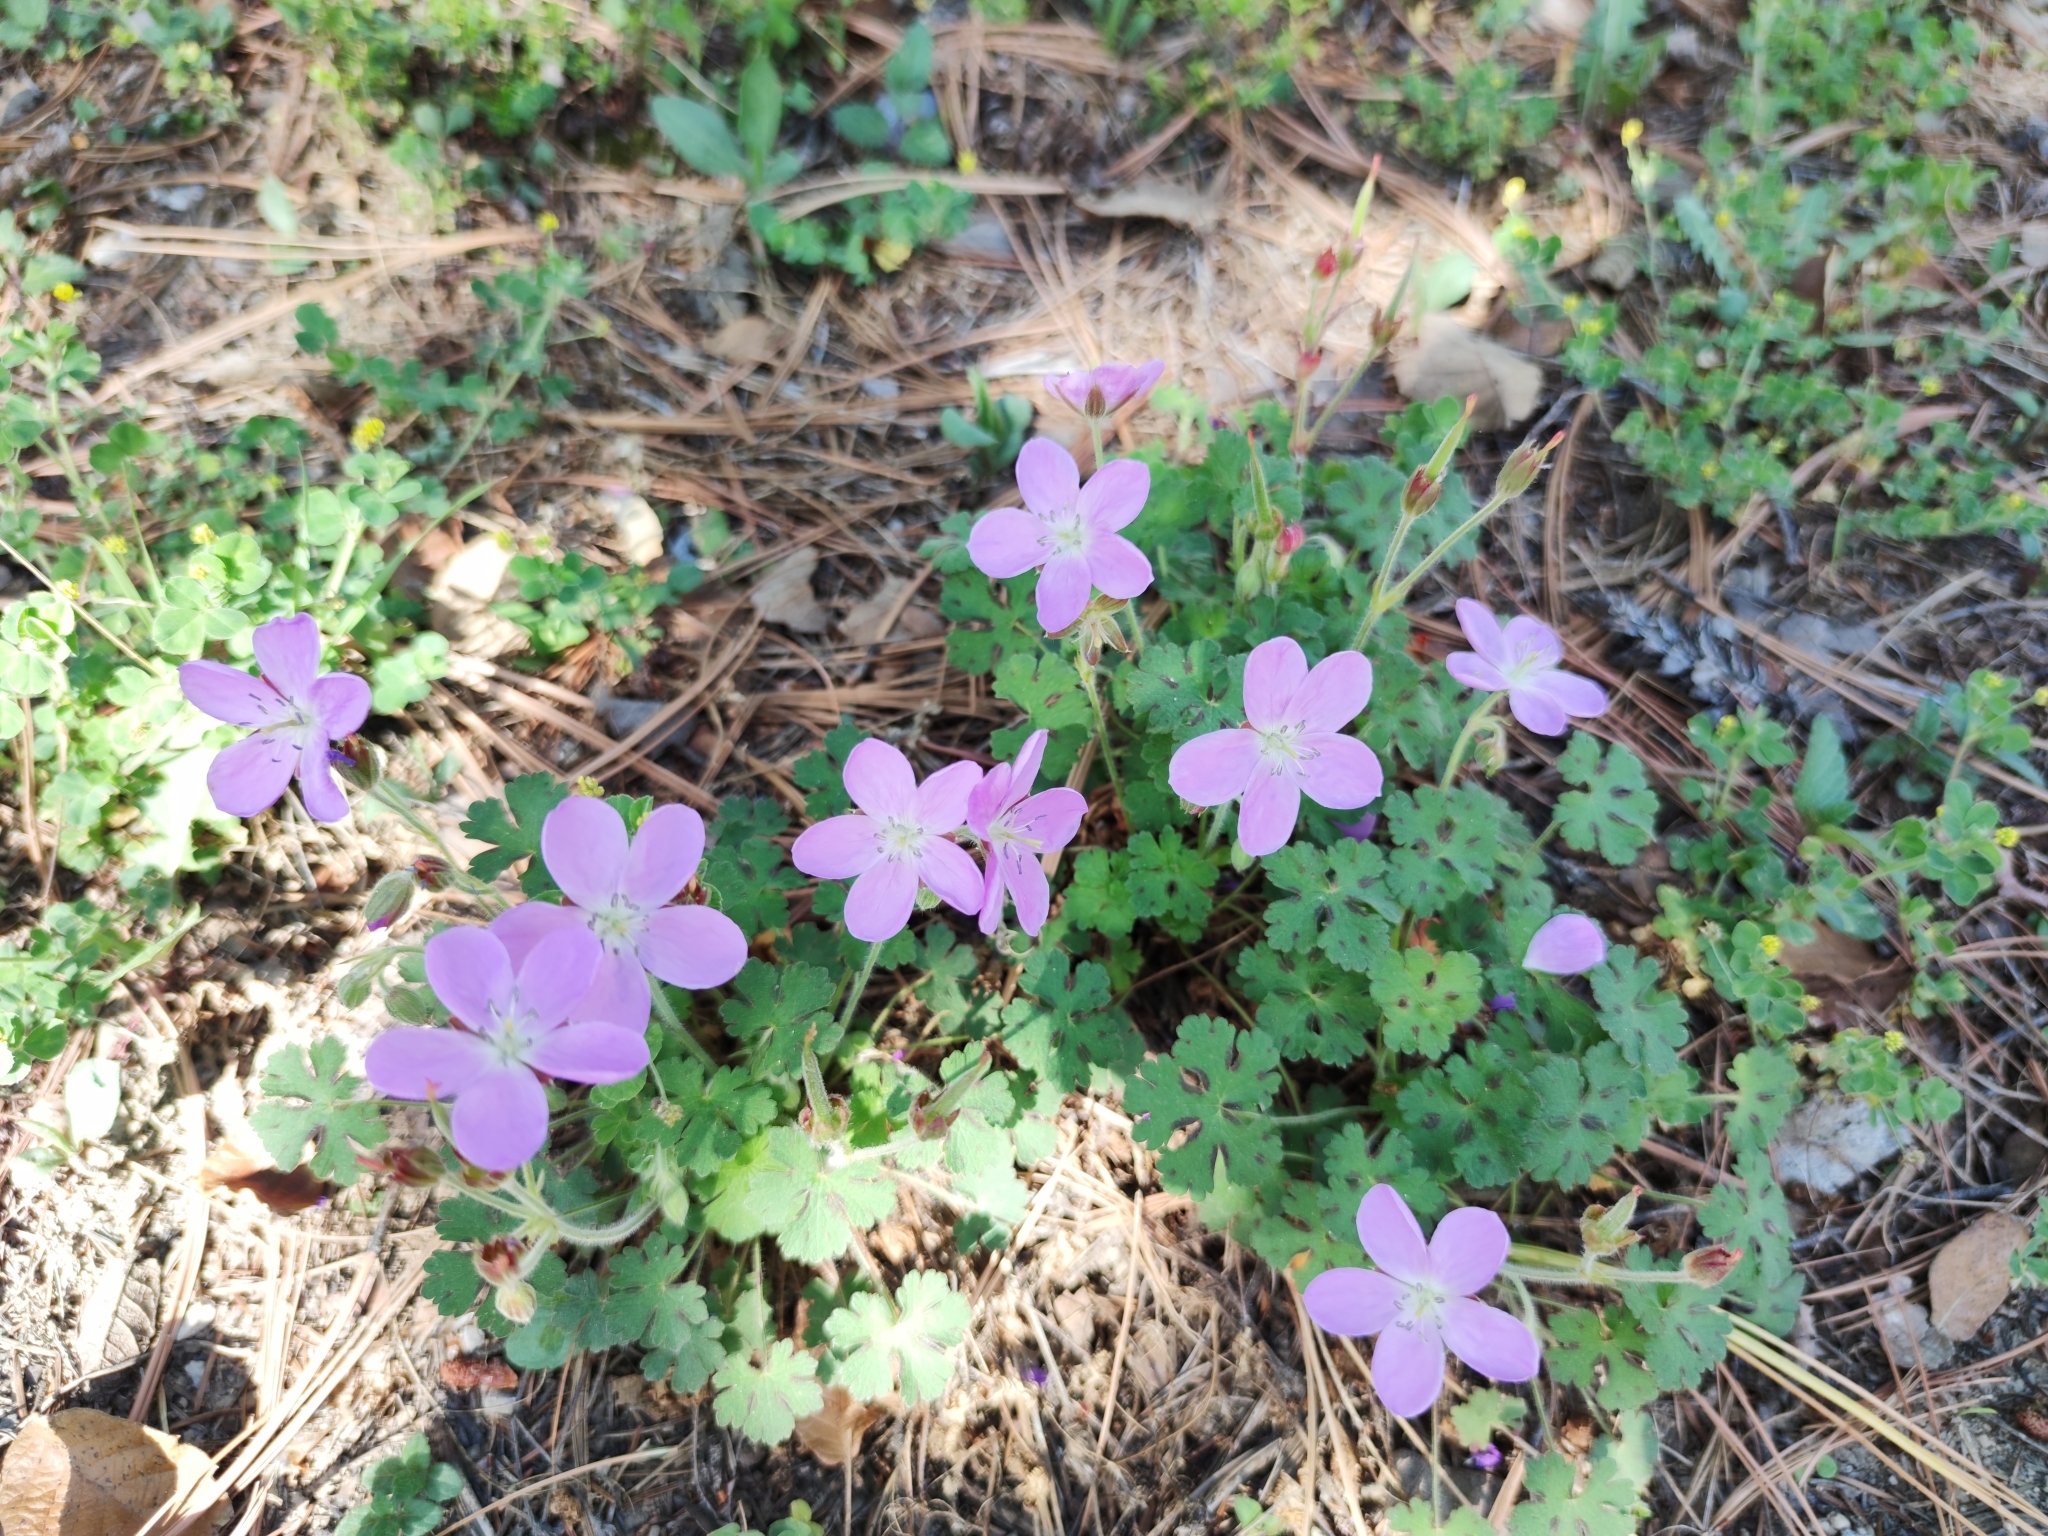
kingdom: Plantae
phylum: Tracheophyta
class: Magnoliopsida
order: Geraniales
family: Geraniaceae
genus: Geranium
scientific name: Geranium crenatifolium
